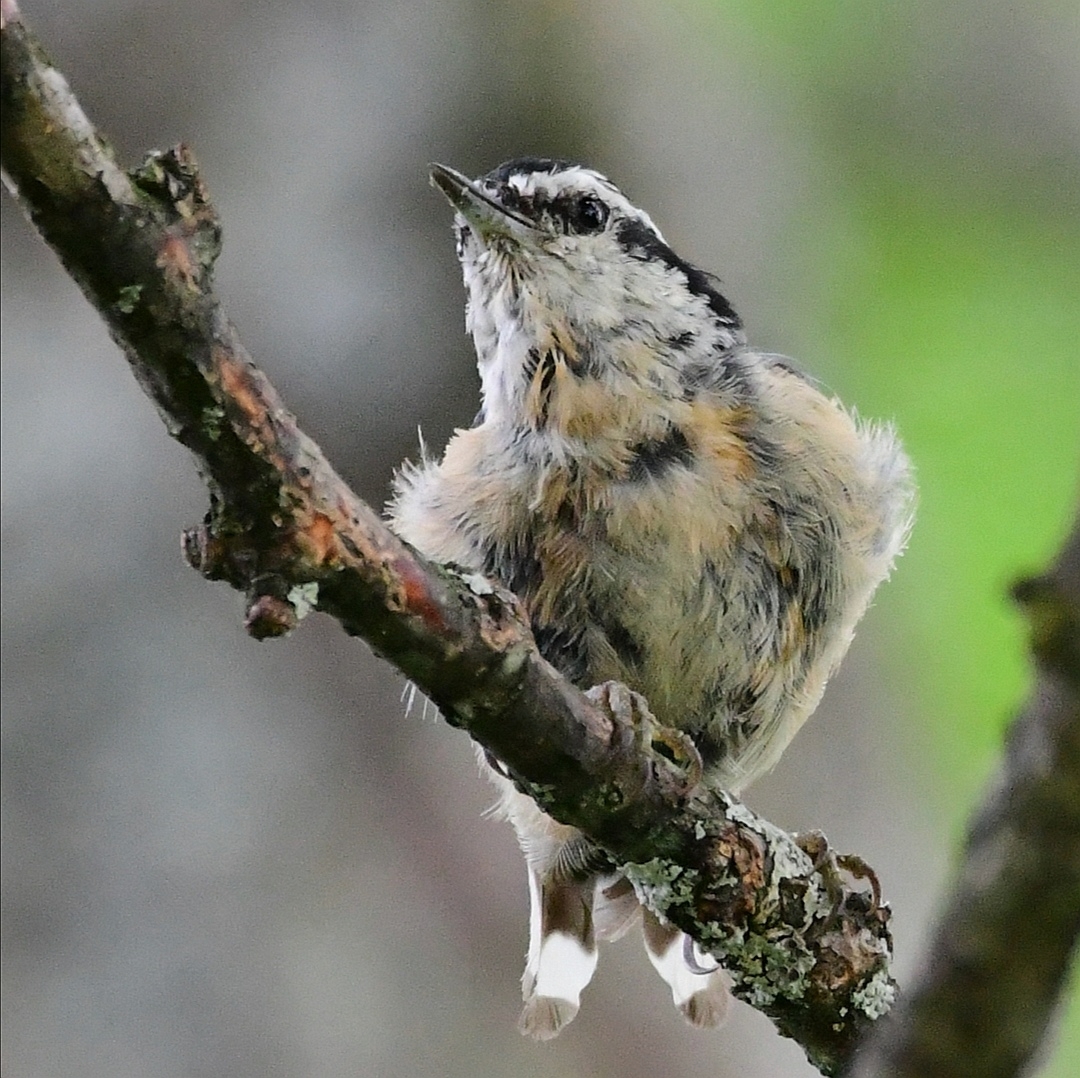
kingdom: Animalia
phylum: Chordata
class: Aves
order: Passeriformes
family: Sittidae
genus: Sitta
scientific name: Sitta canadensis
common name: Red-breasted nuthatch
